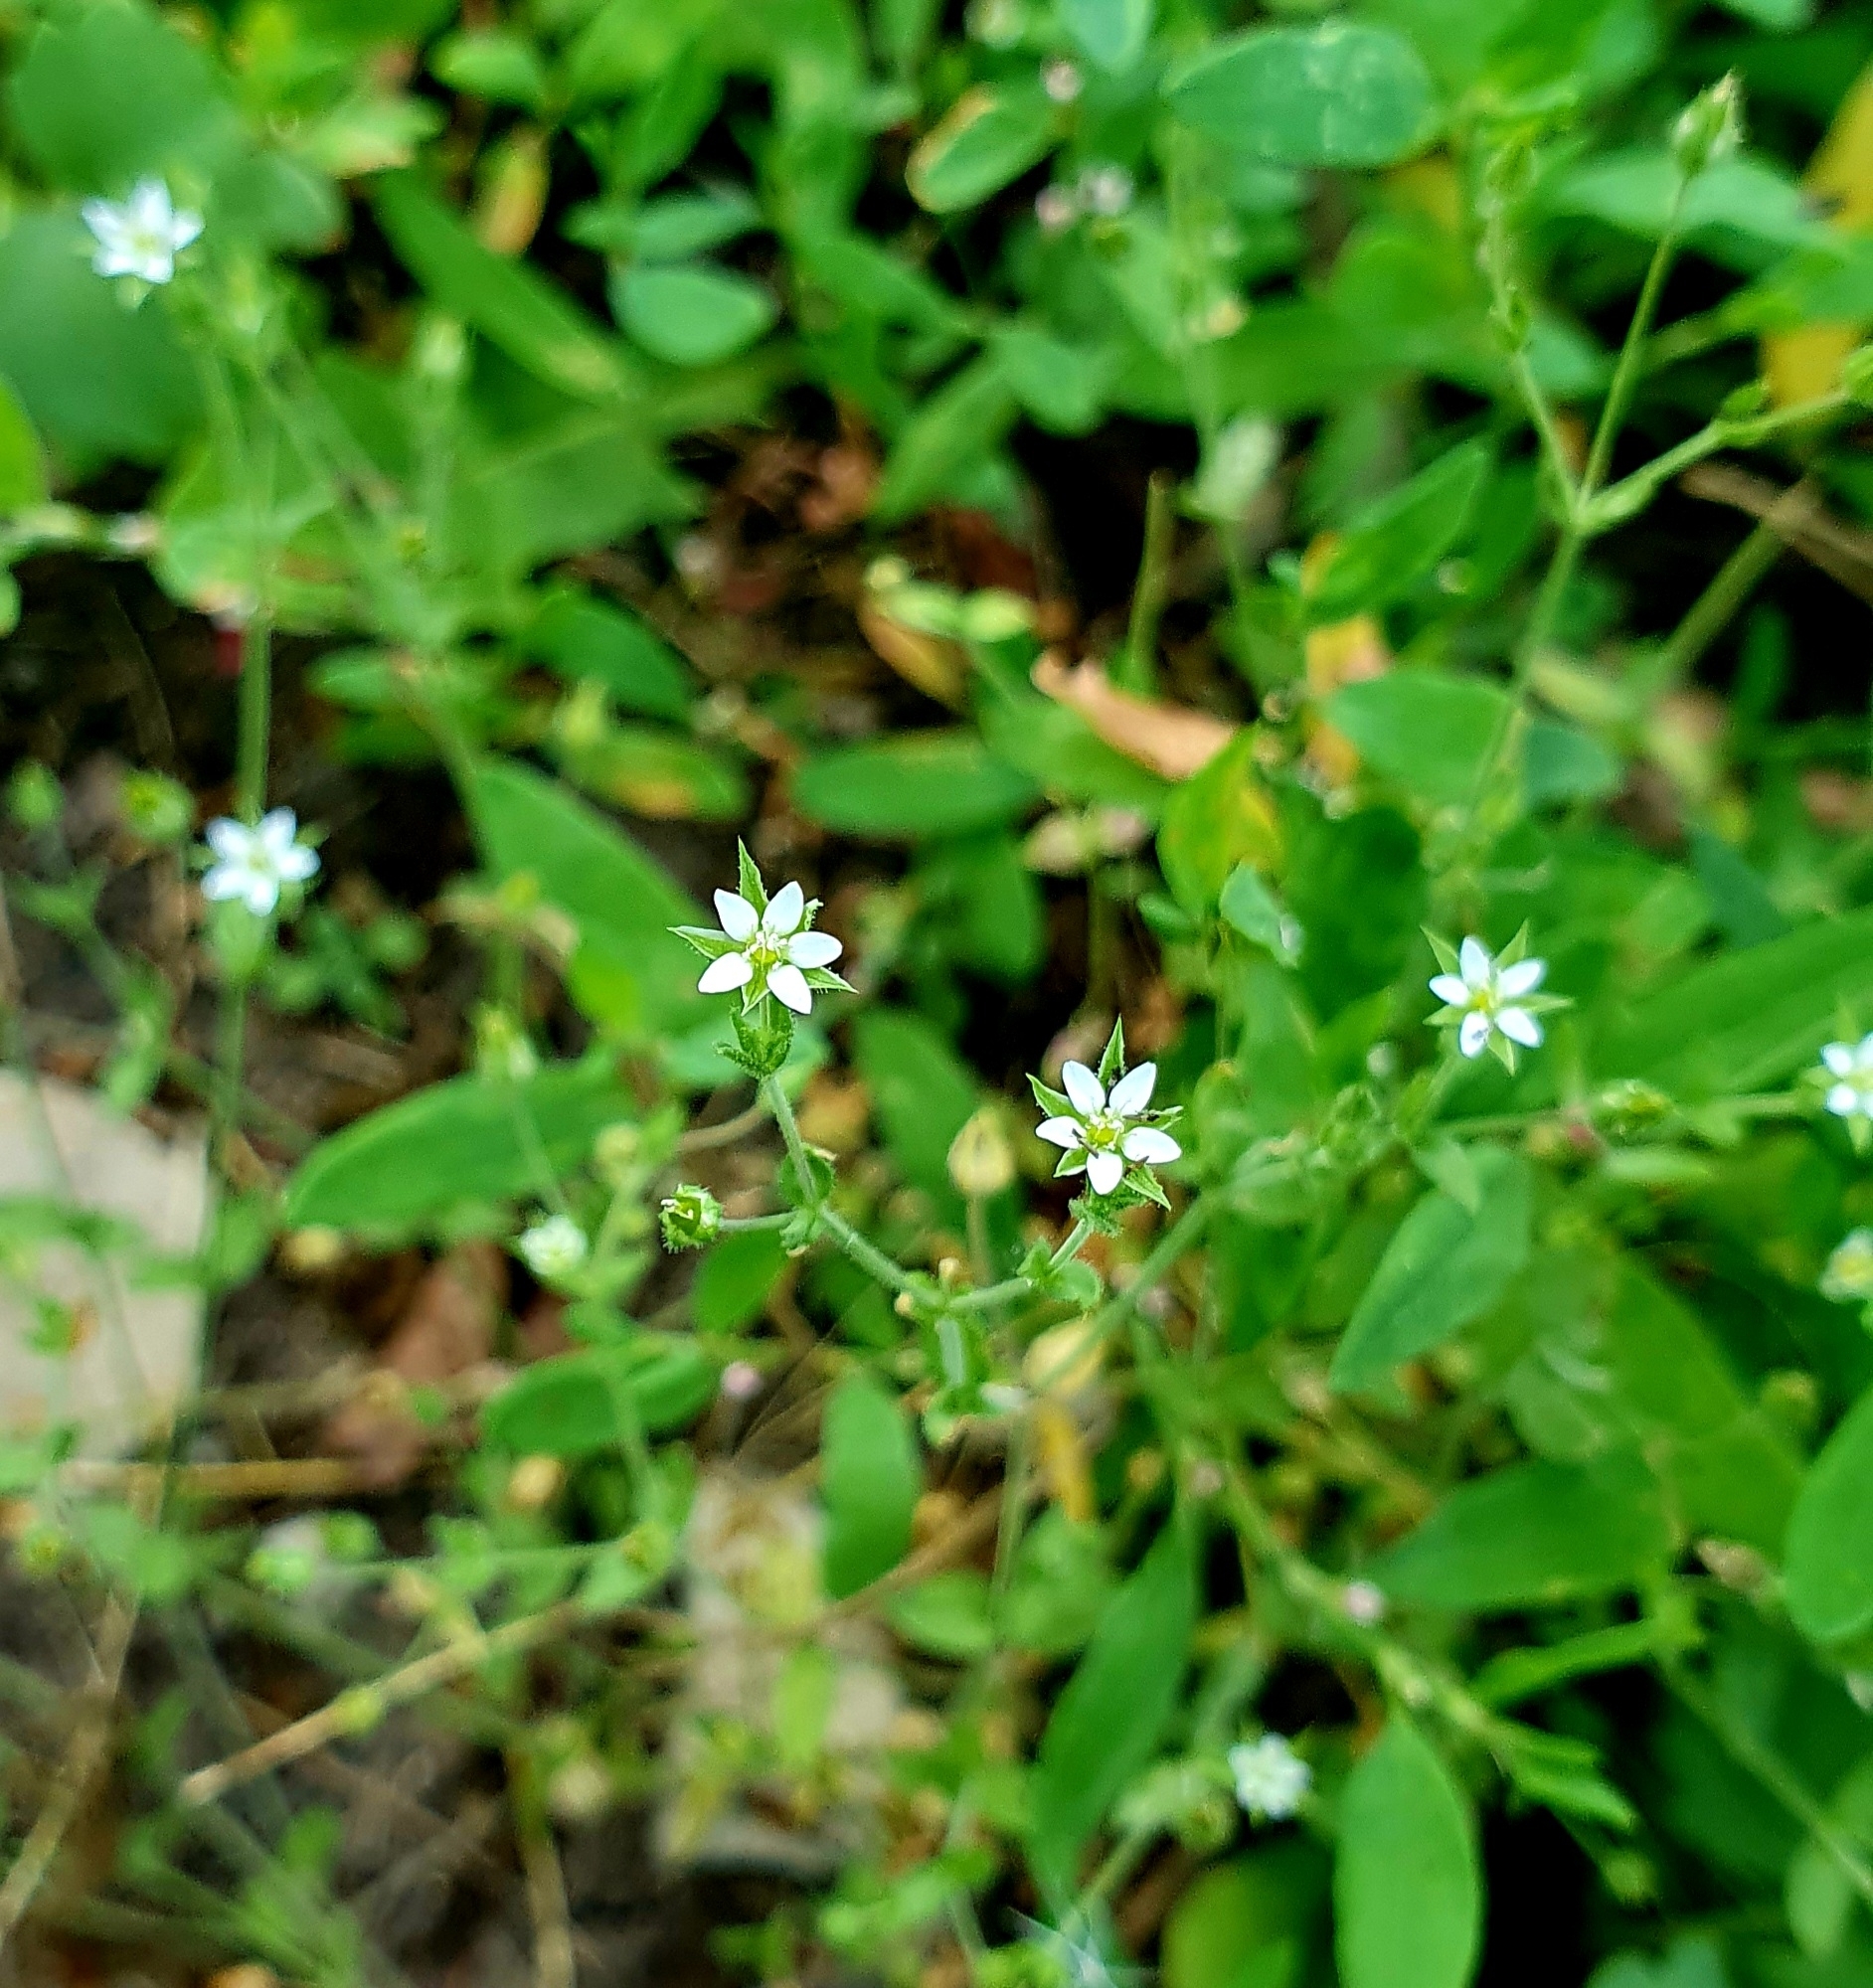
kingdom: Plantae
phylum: Tracheophyta
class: Magnoliopsida
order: Caryophyllales
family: Caryophyllaceae
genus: Arenaria
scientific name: Arenaria serpyllifolia
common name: Thyme-leaved sandwort
